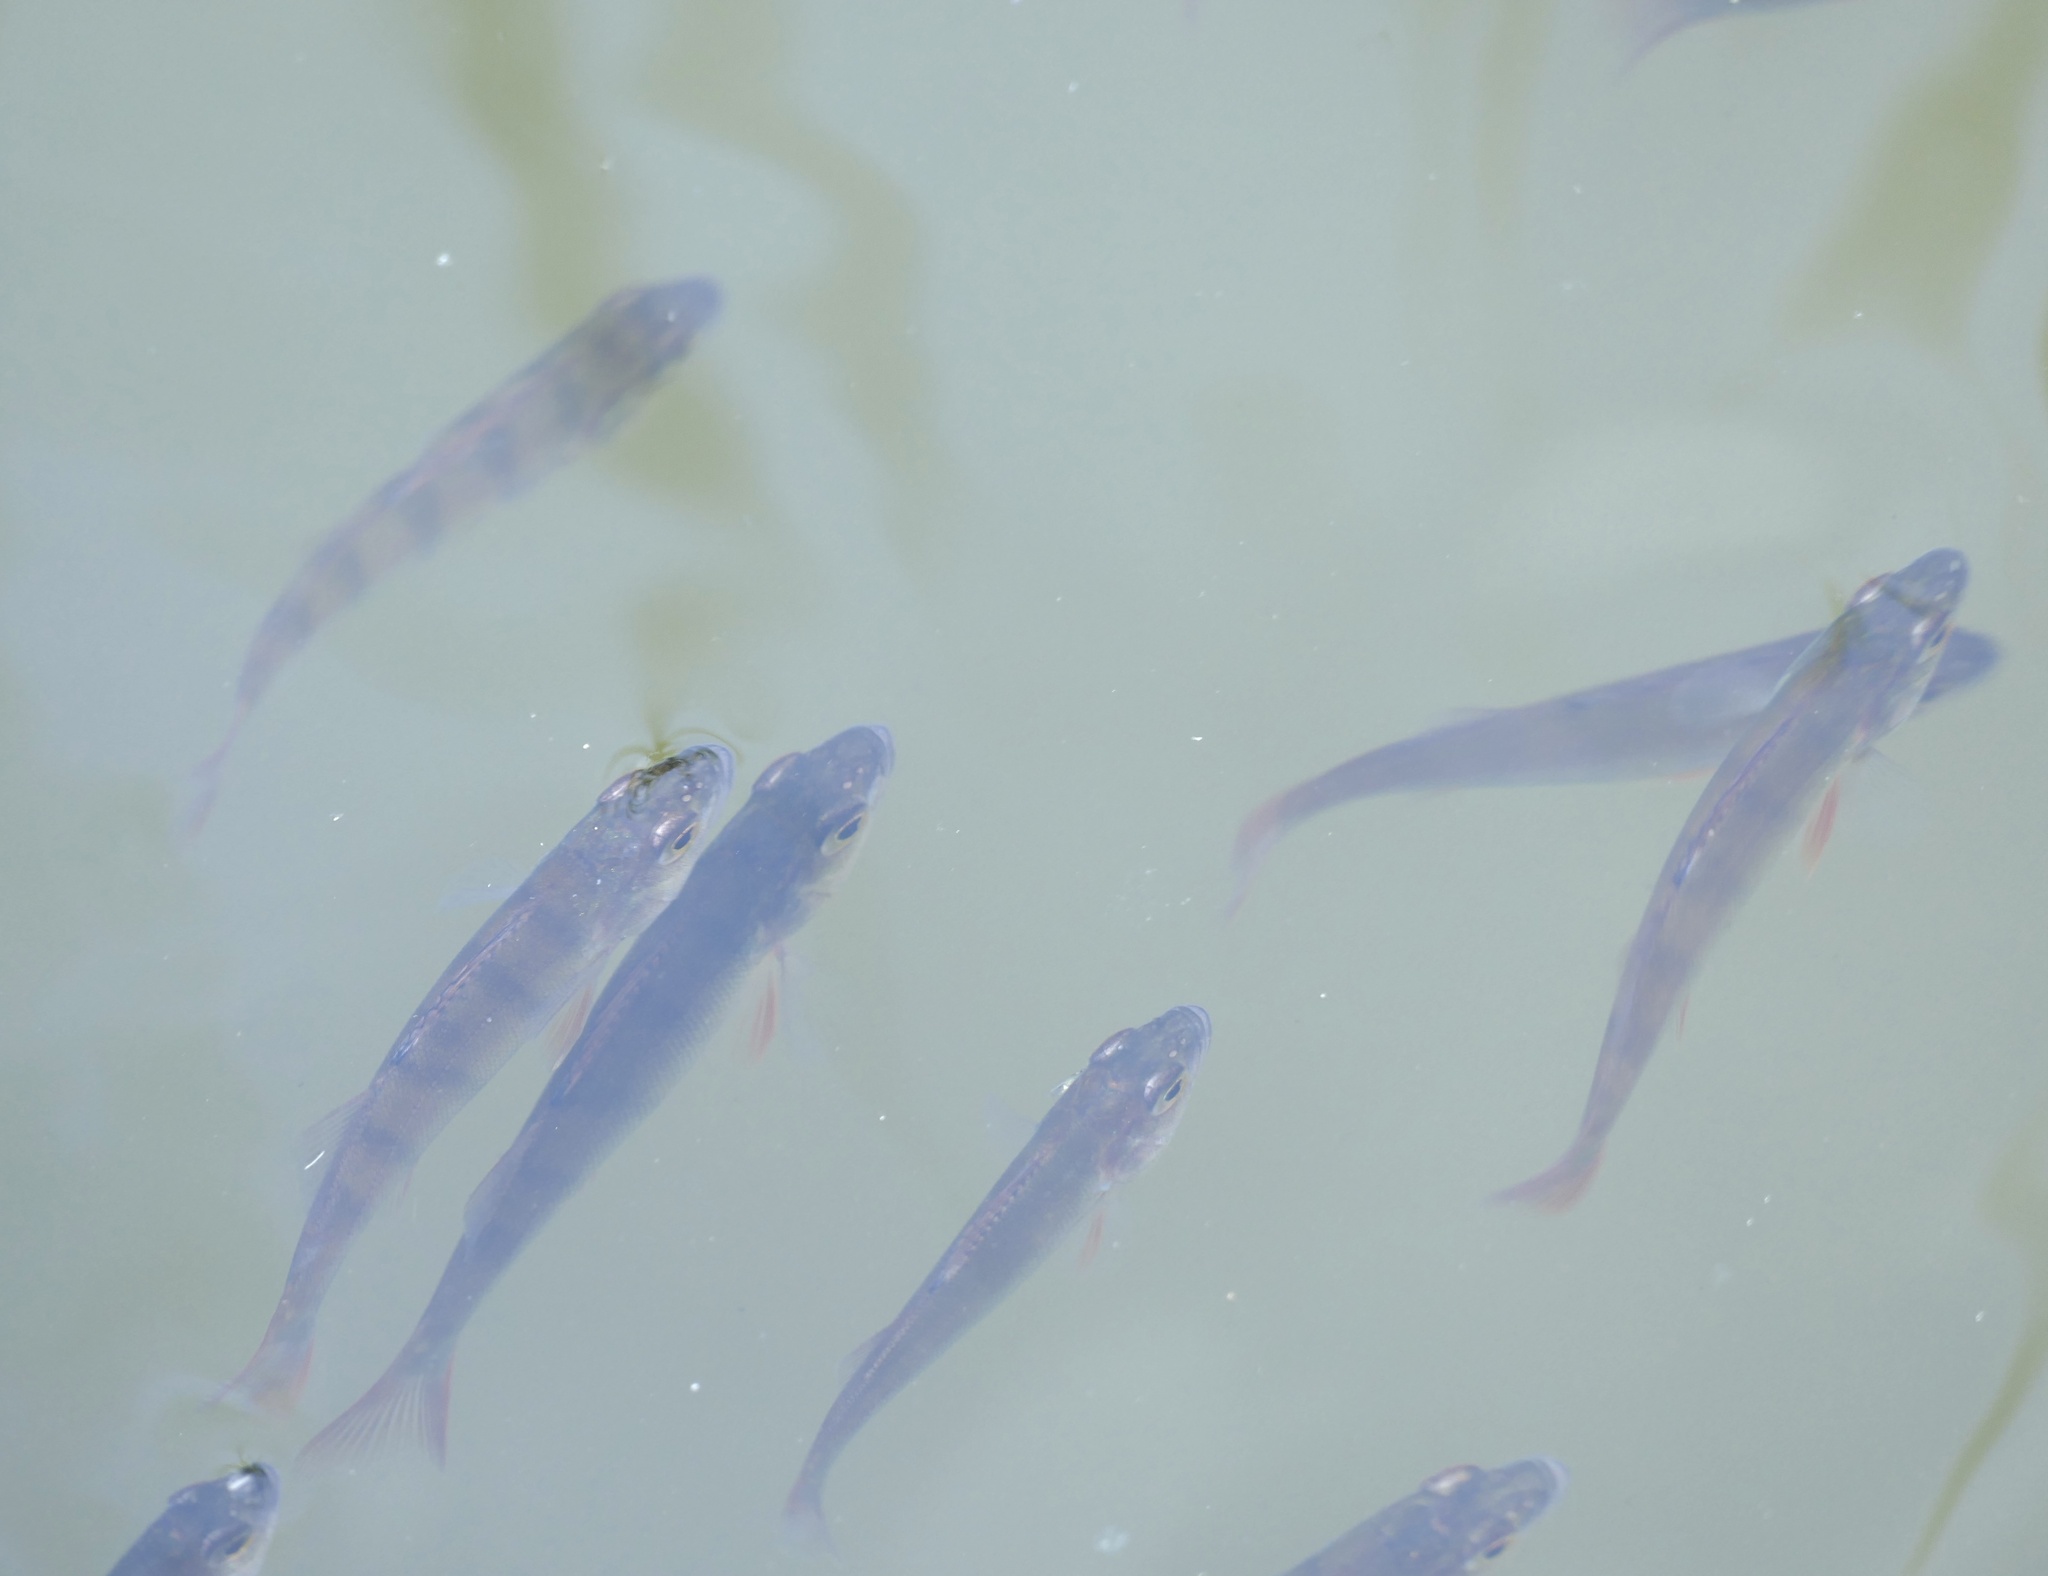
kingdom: Animalia
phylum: Chordata
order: Perciformes
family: Percidae
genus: Perca
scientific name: Perca fluviatilis
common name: Perch
